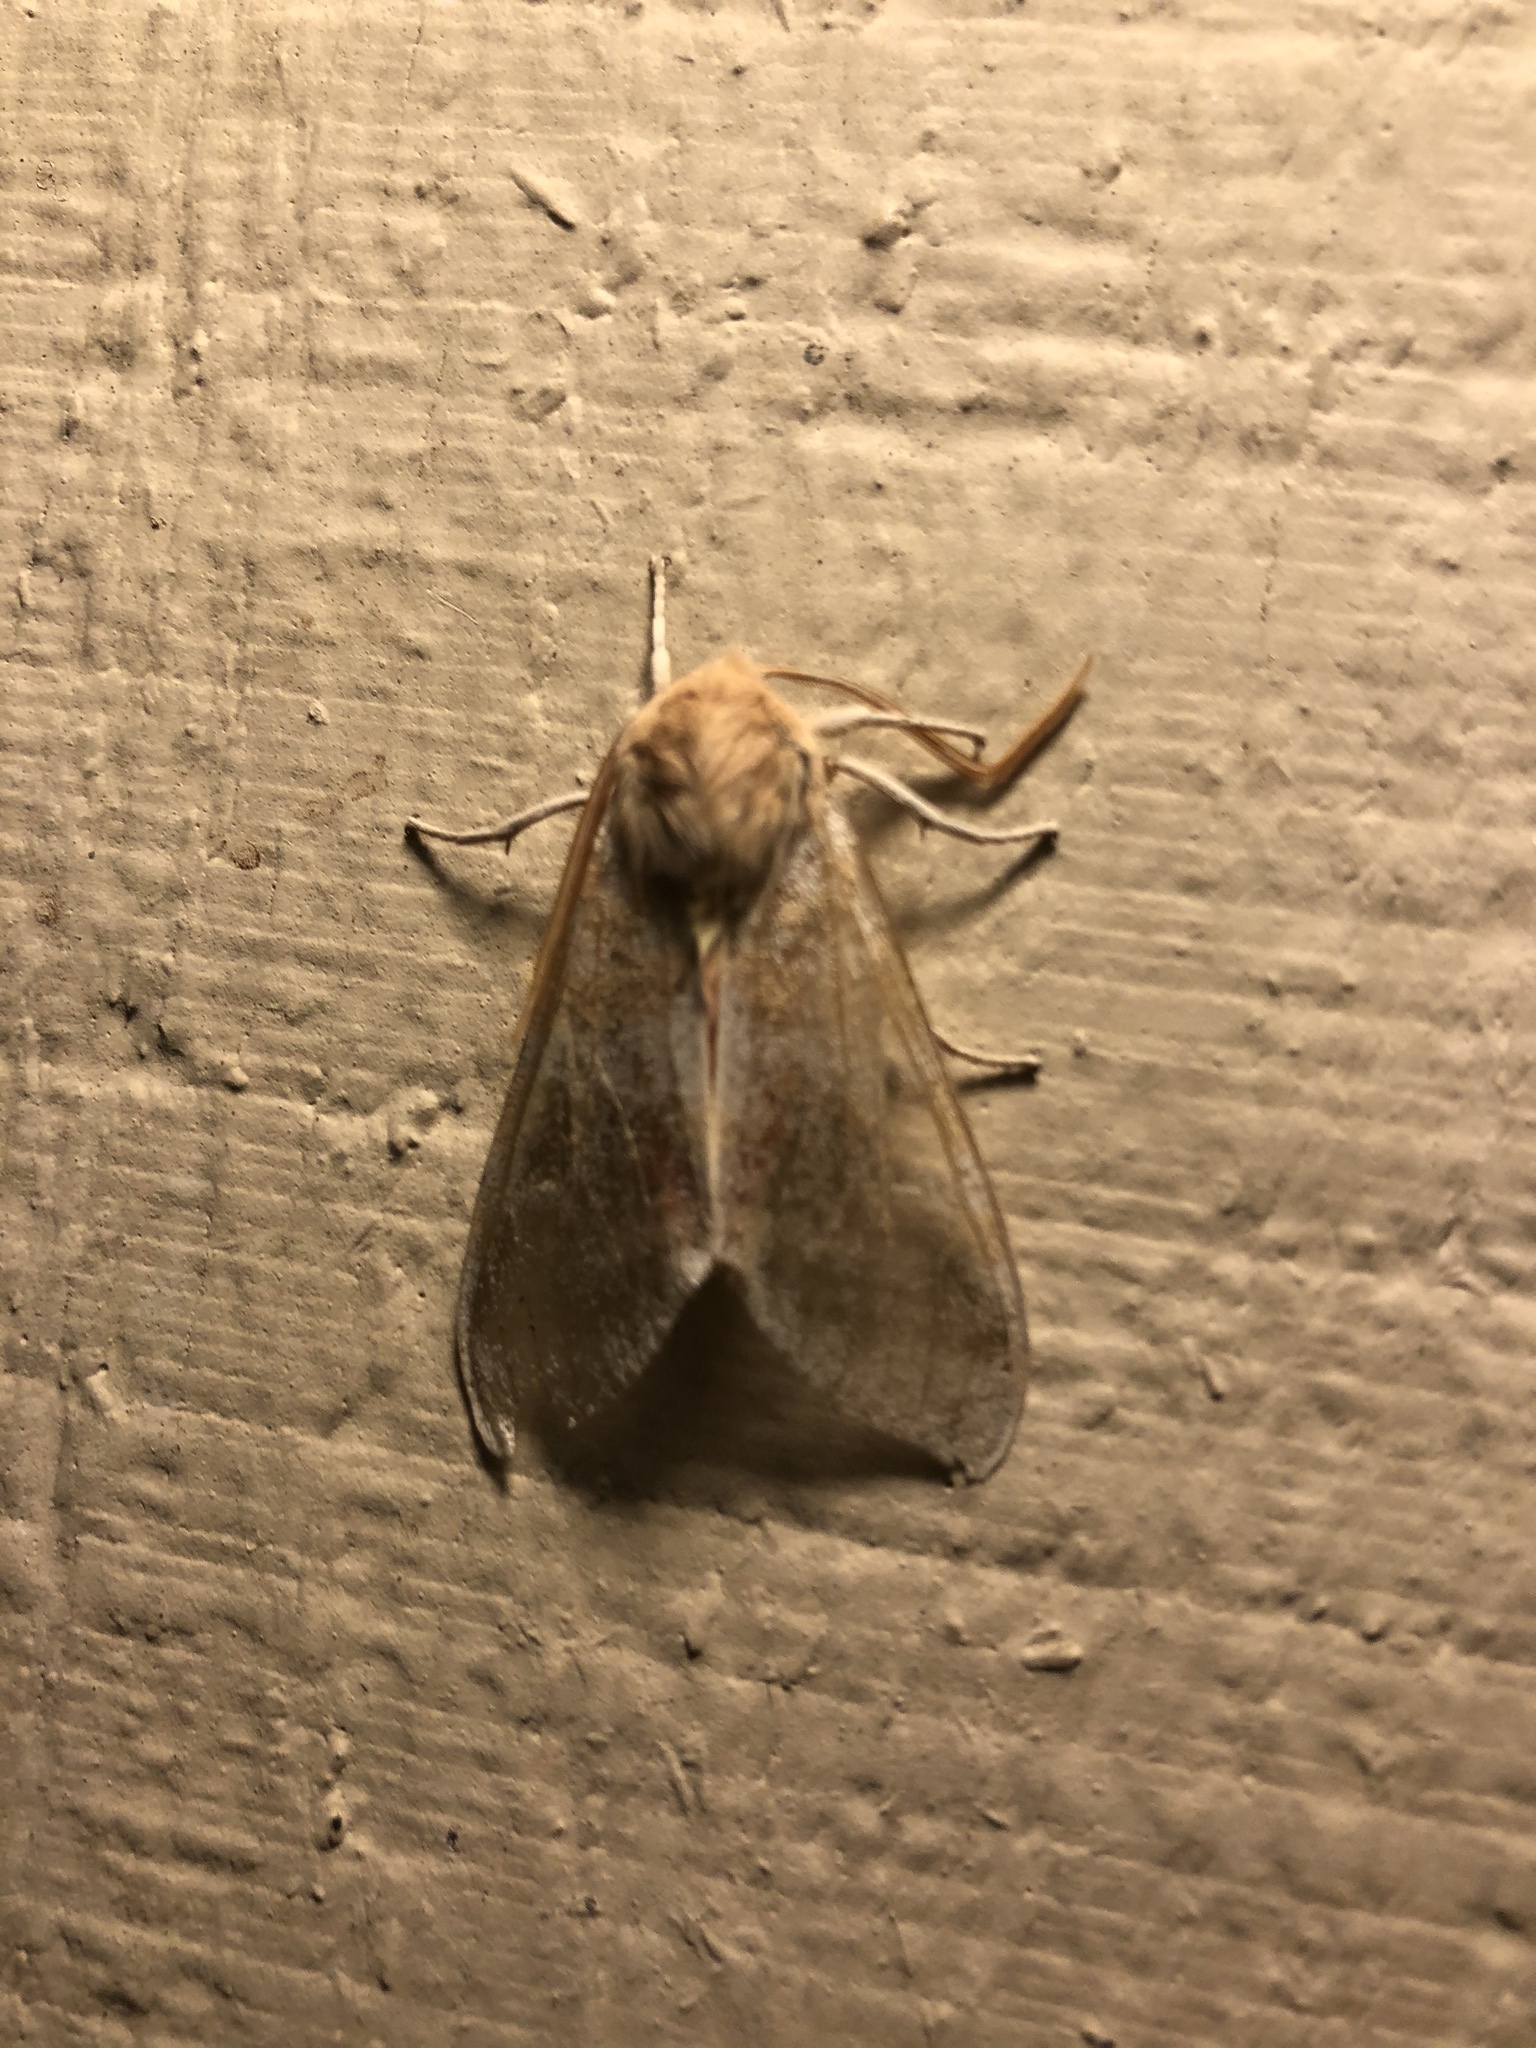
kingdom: Animalia
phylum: Arthropoda
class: Insecta
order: Lepidoptera
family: Erebidae
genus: Hemihyalea
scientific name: Hemihyalea edwardsii
